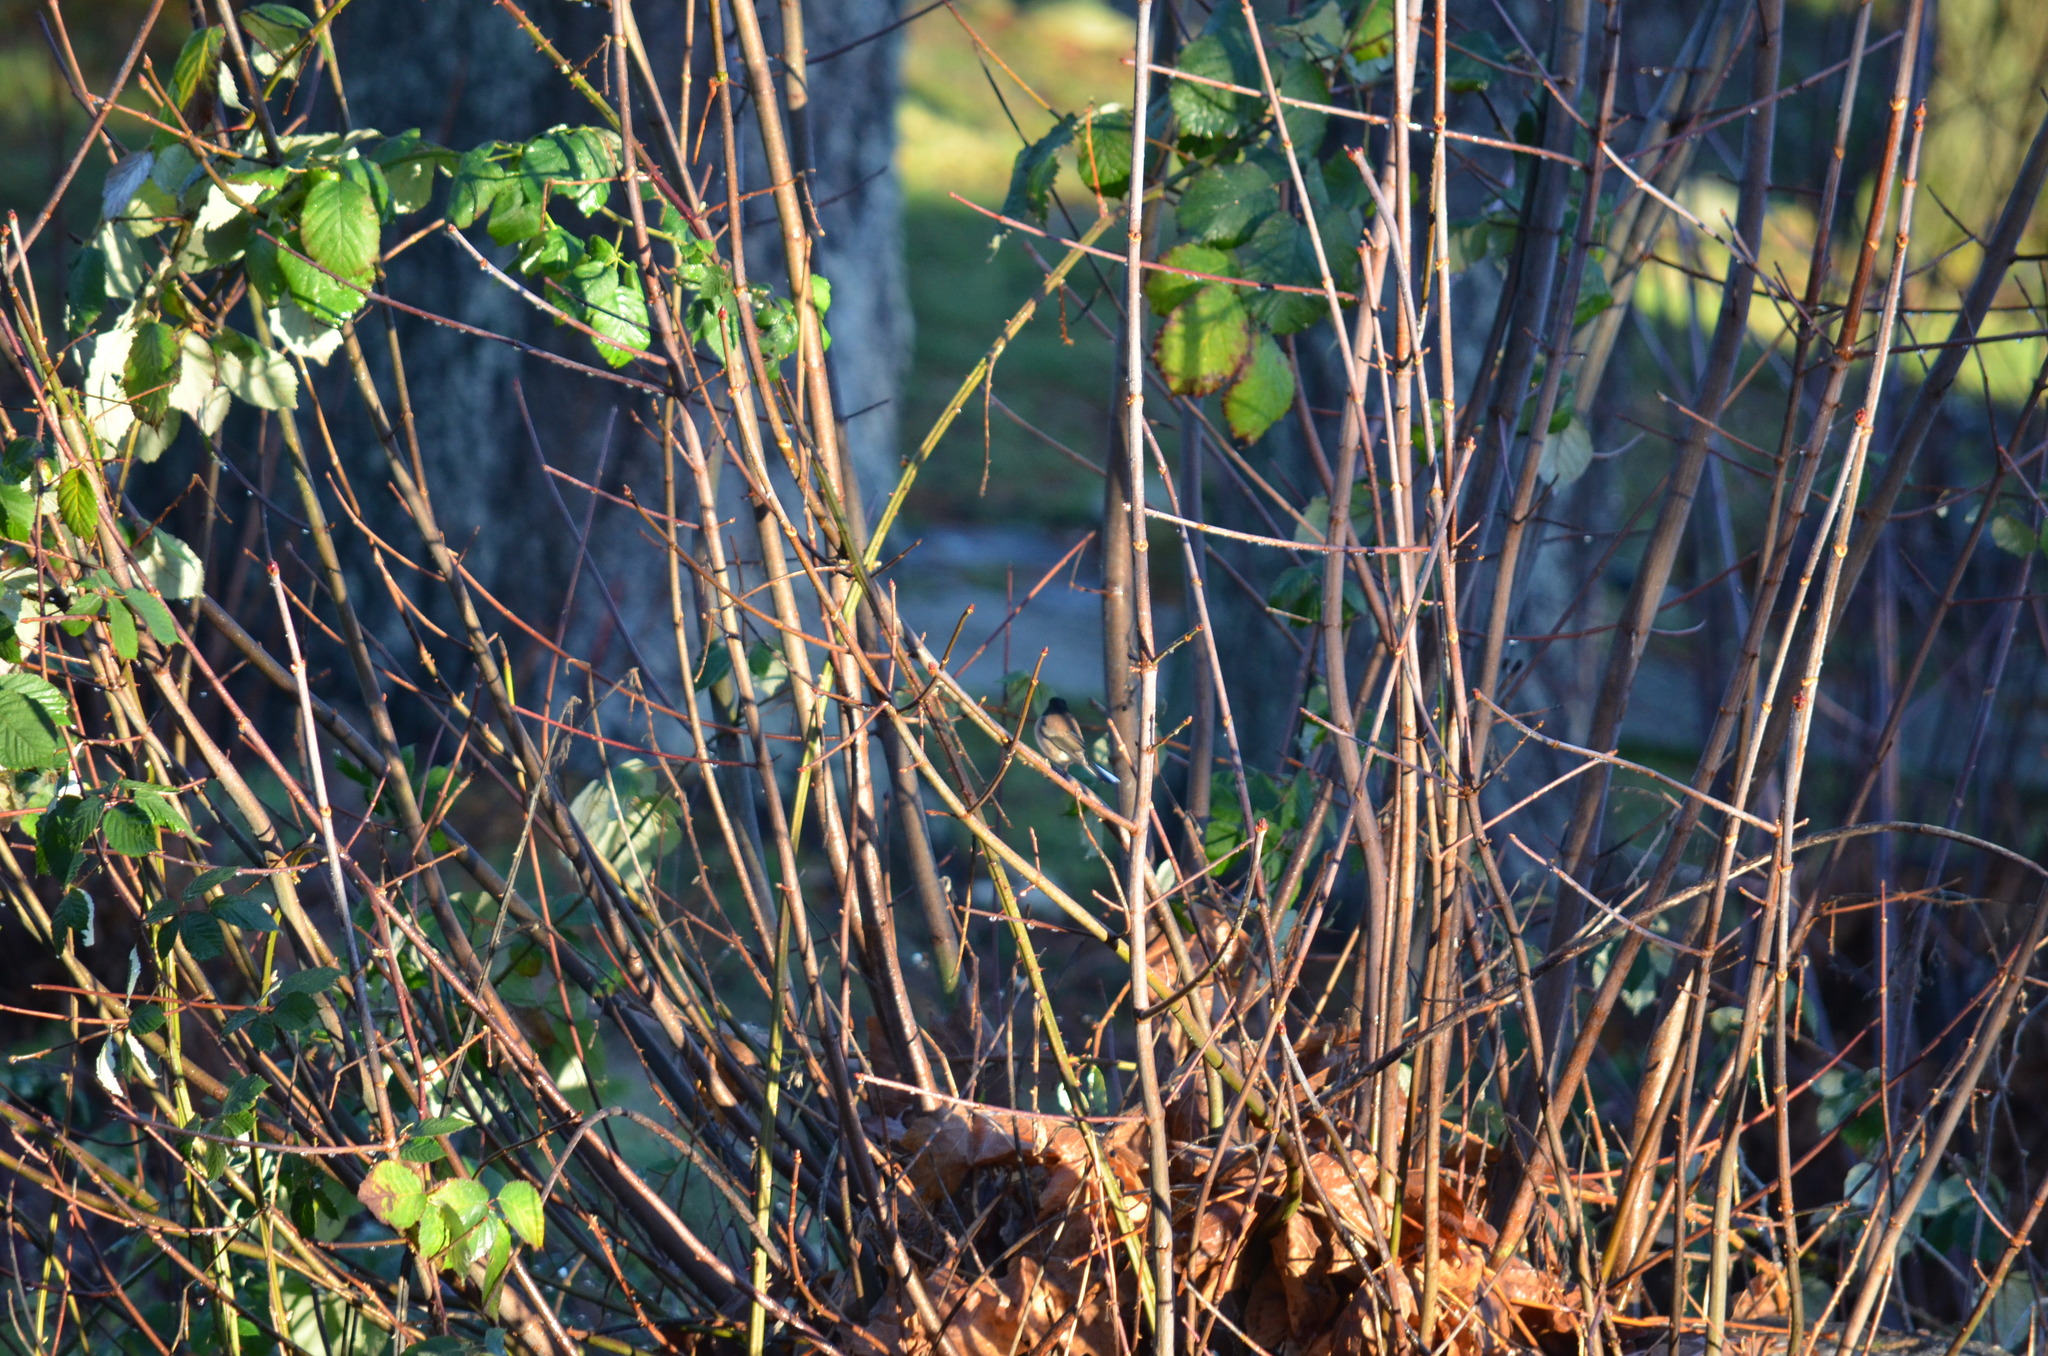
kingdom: Animalia
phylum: Chordata
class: Aves
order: Passeriformes
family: Passerellidae
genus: Junco
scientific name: Junco hyemalis
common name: Dark-eyed junco
